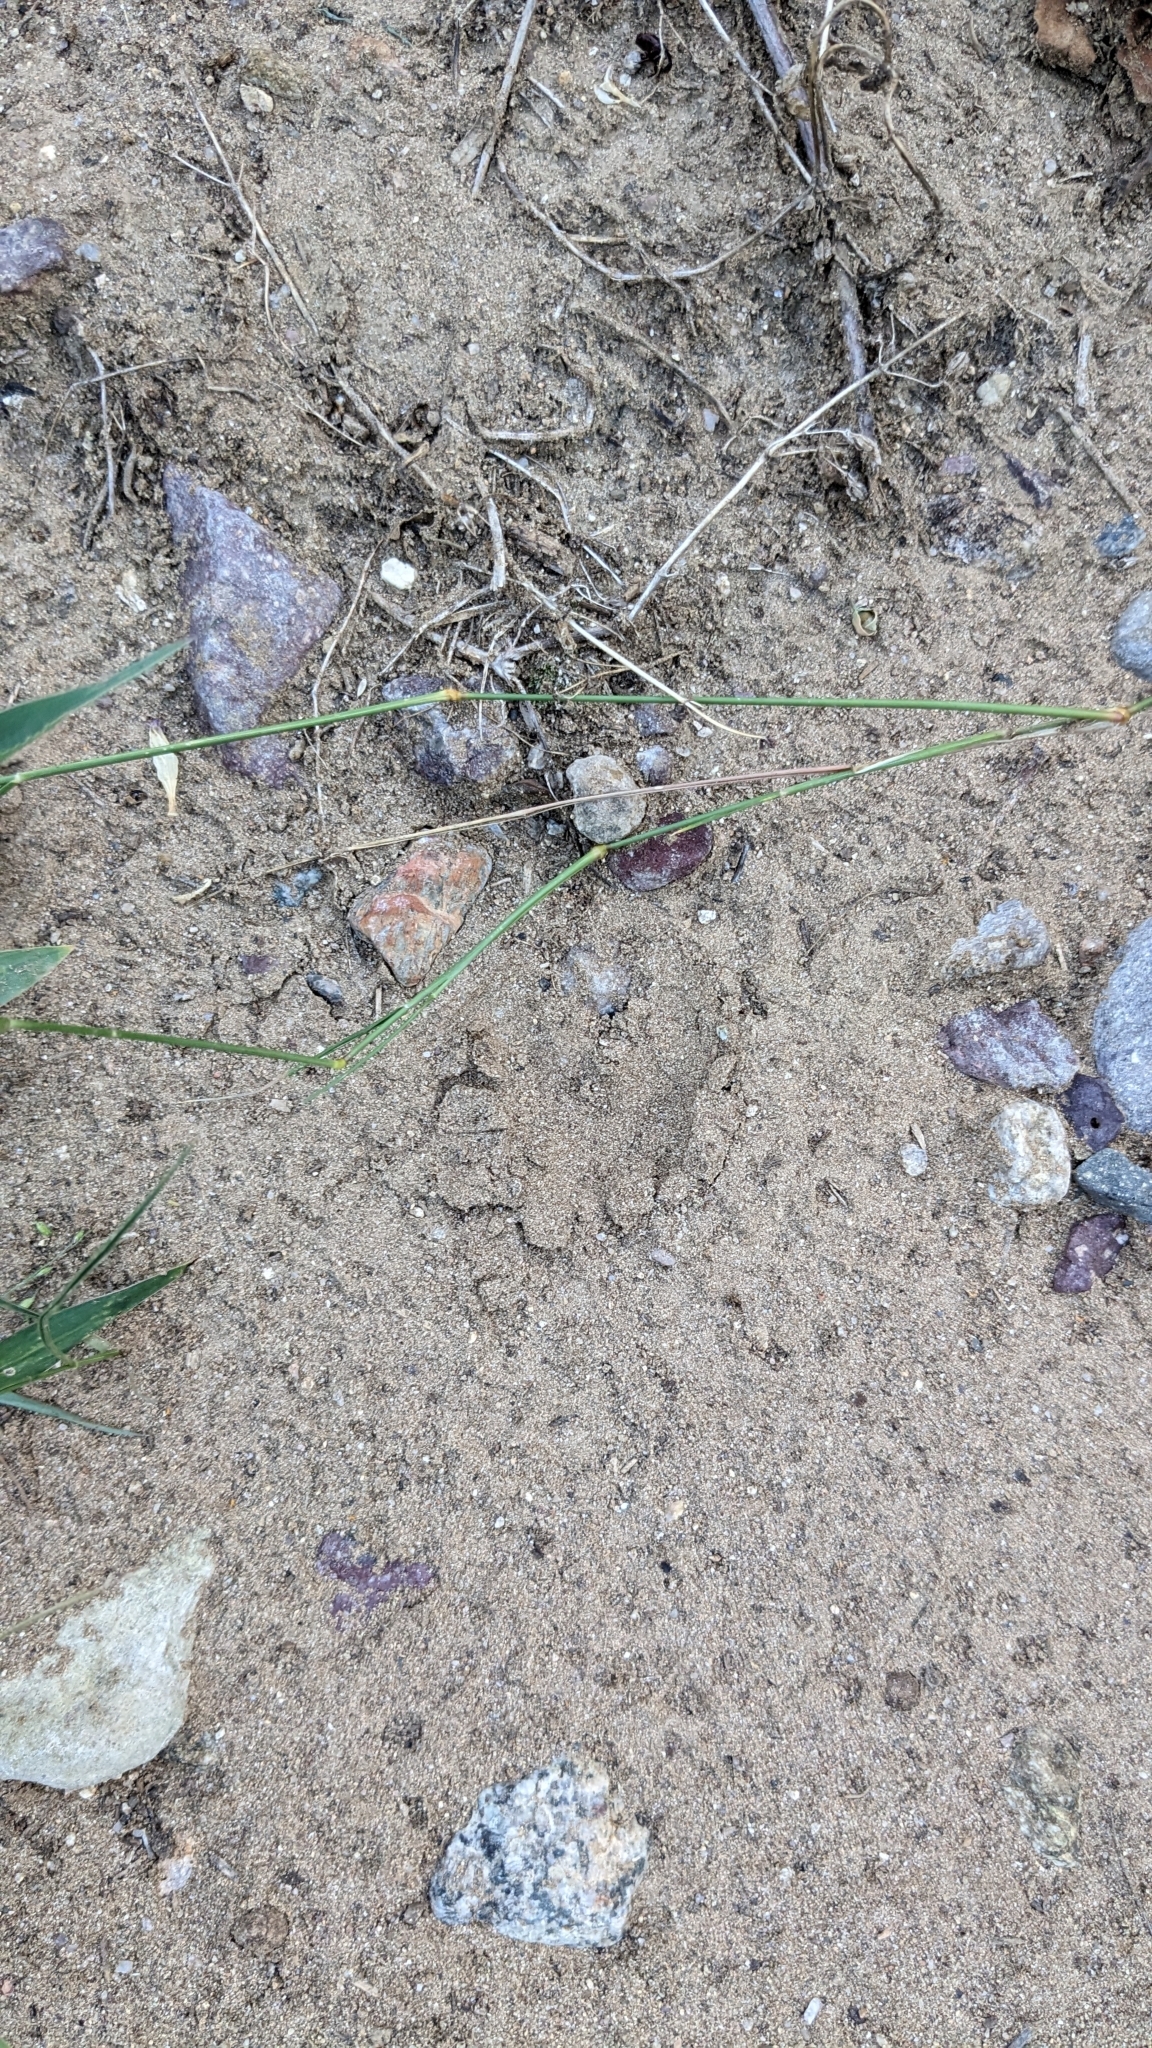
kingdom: Animalia
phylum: Chordata
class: Mammalia
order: Artiodactyla
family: Tayassuidae
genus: Pecari
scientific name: Pecari tajacu
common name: Collared peccary
